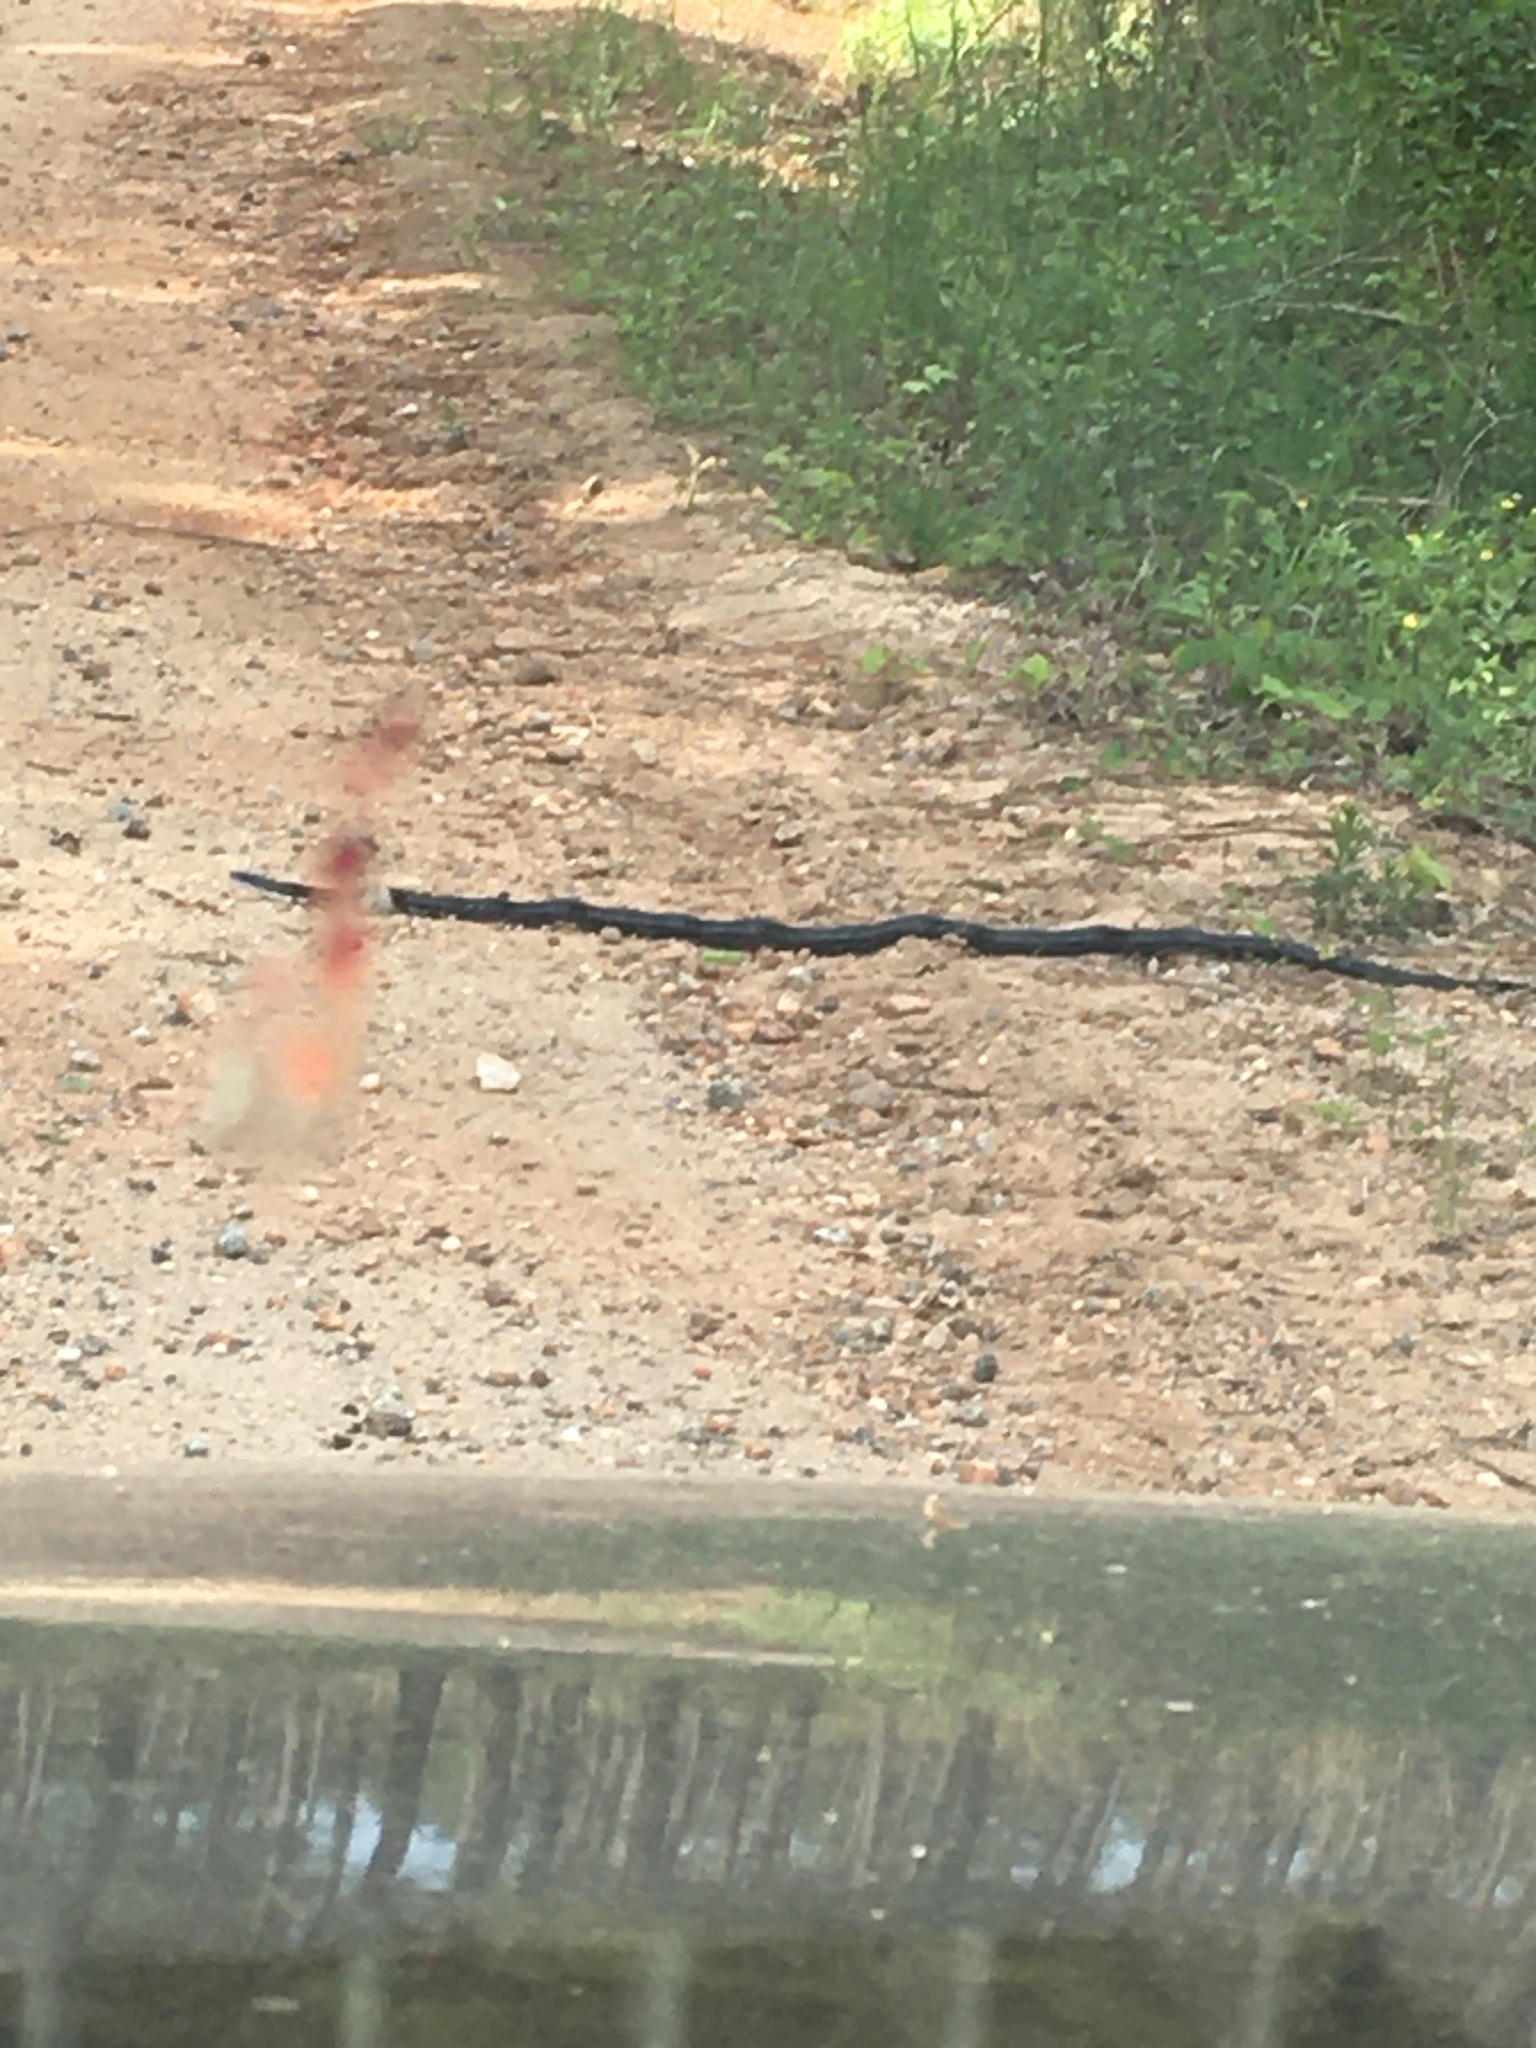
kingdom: Animalia
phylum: Chordata
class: Squamata
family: Colubridae
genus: Pantherophis
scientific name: Pantherophis alleghaniensis
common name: Eastern rat snake
